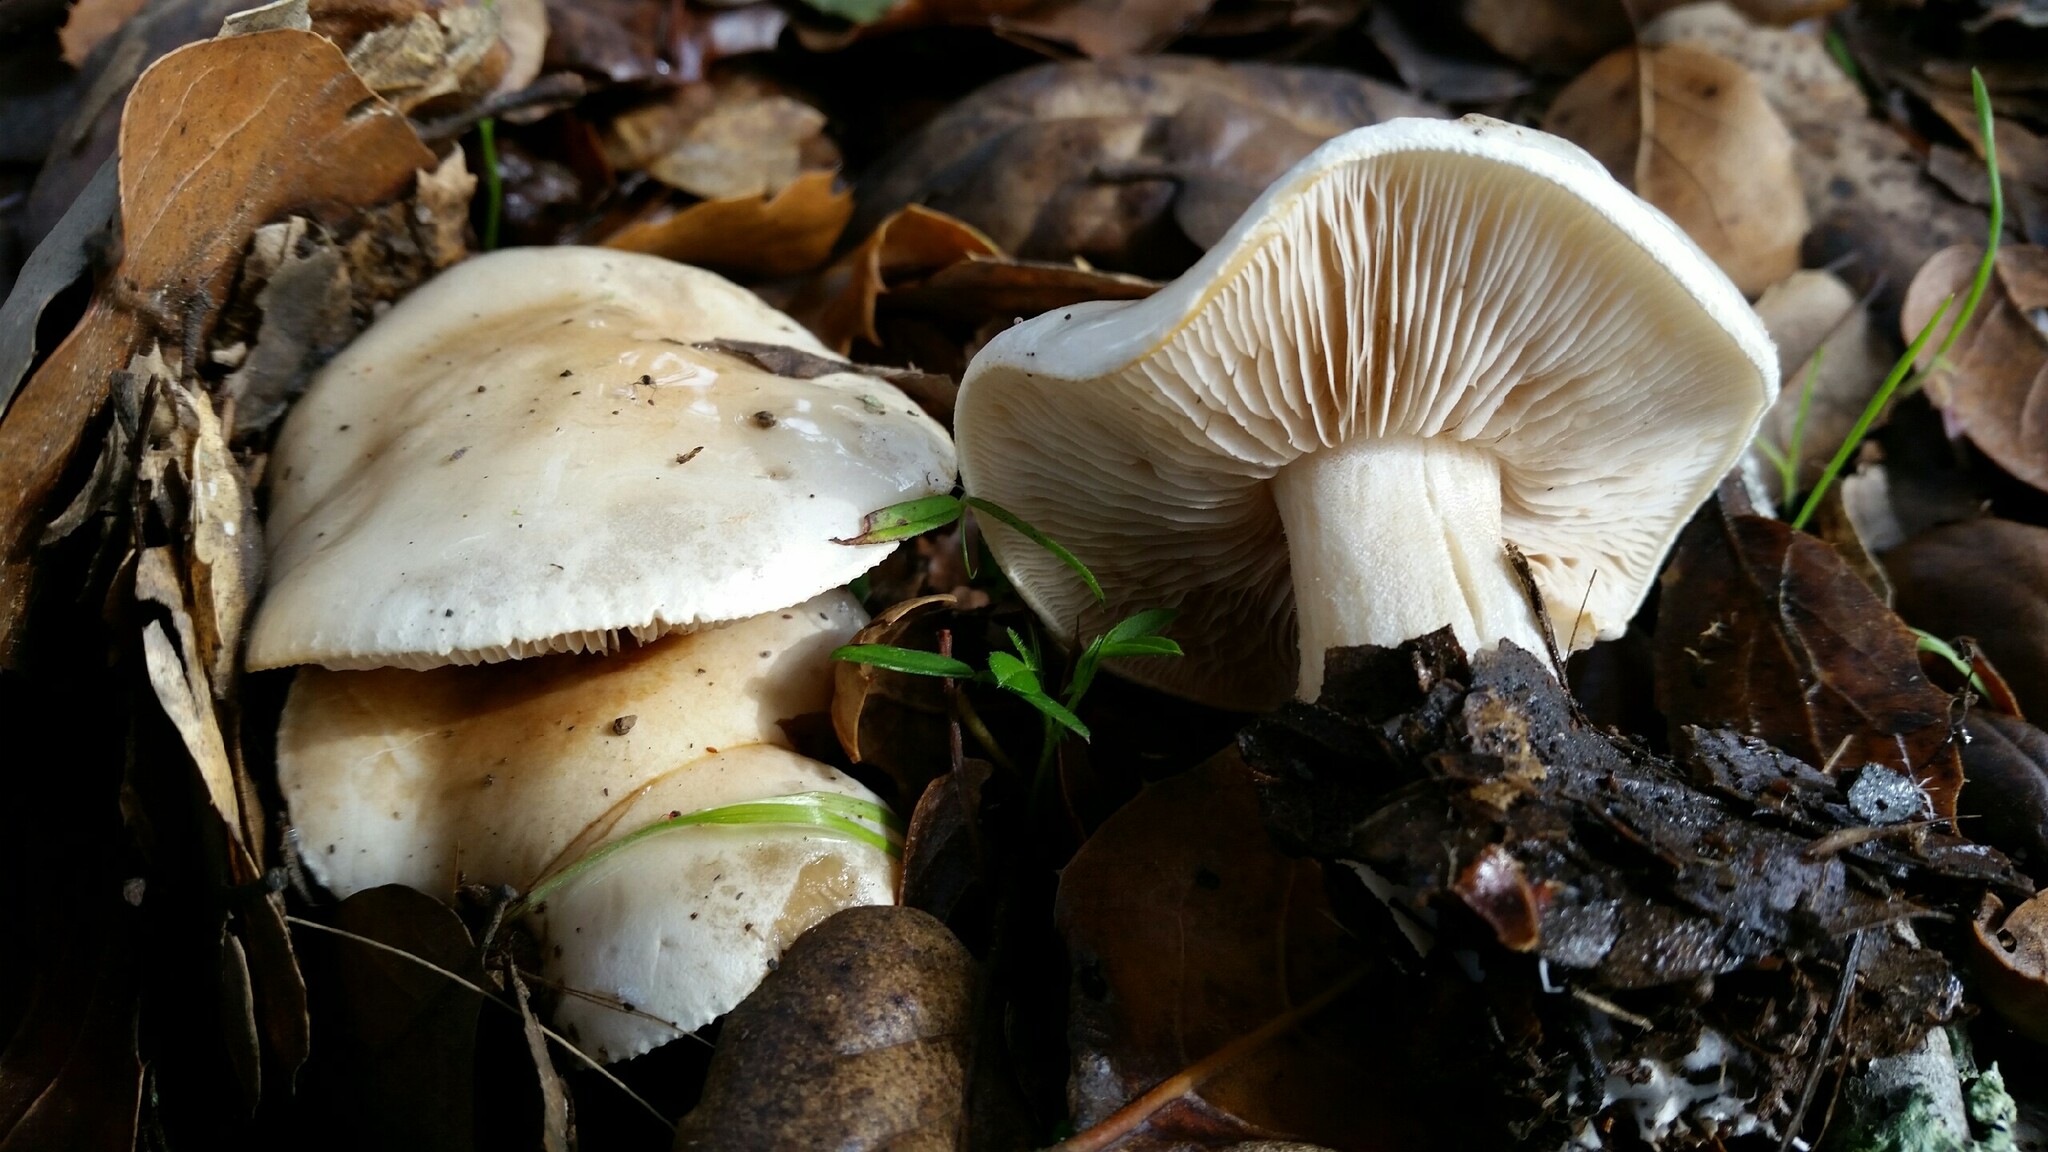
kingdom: Fungi
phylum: Basidiomycota
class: Agaricomycetes
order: Agaricales
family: Hygrophoraceae
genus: Hygrophorus
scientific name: Hygrophorus eburneus
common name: Ivory wax-cap
